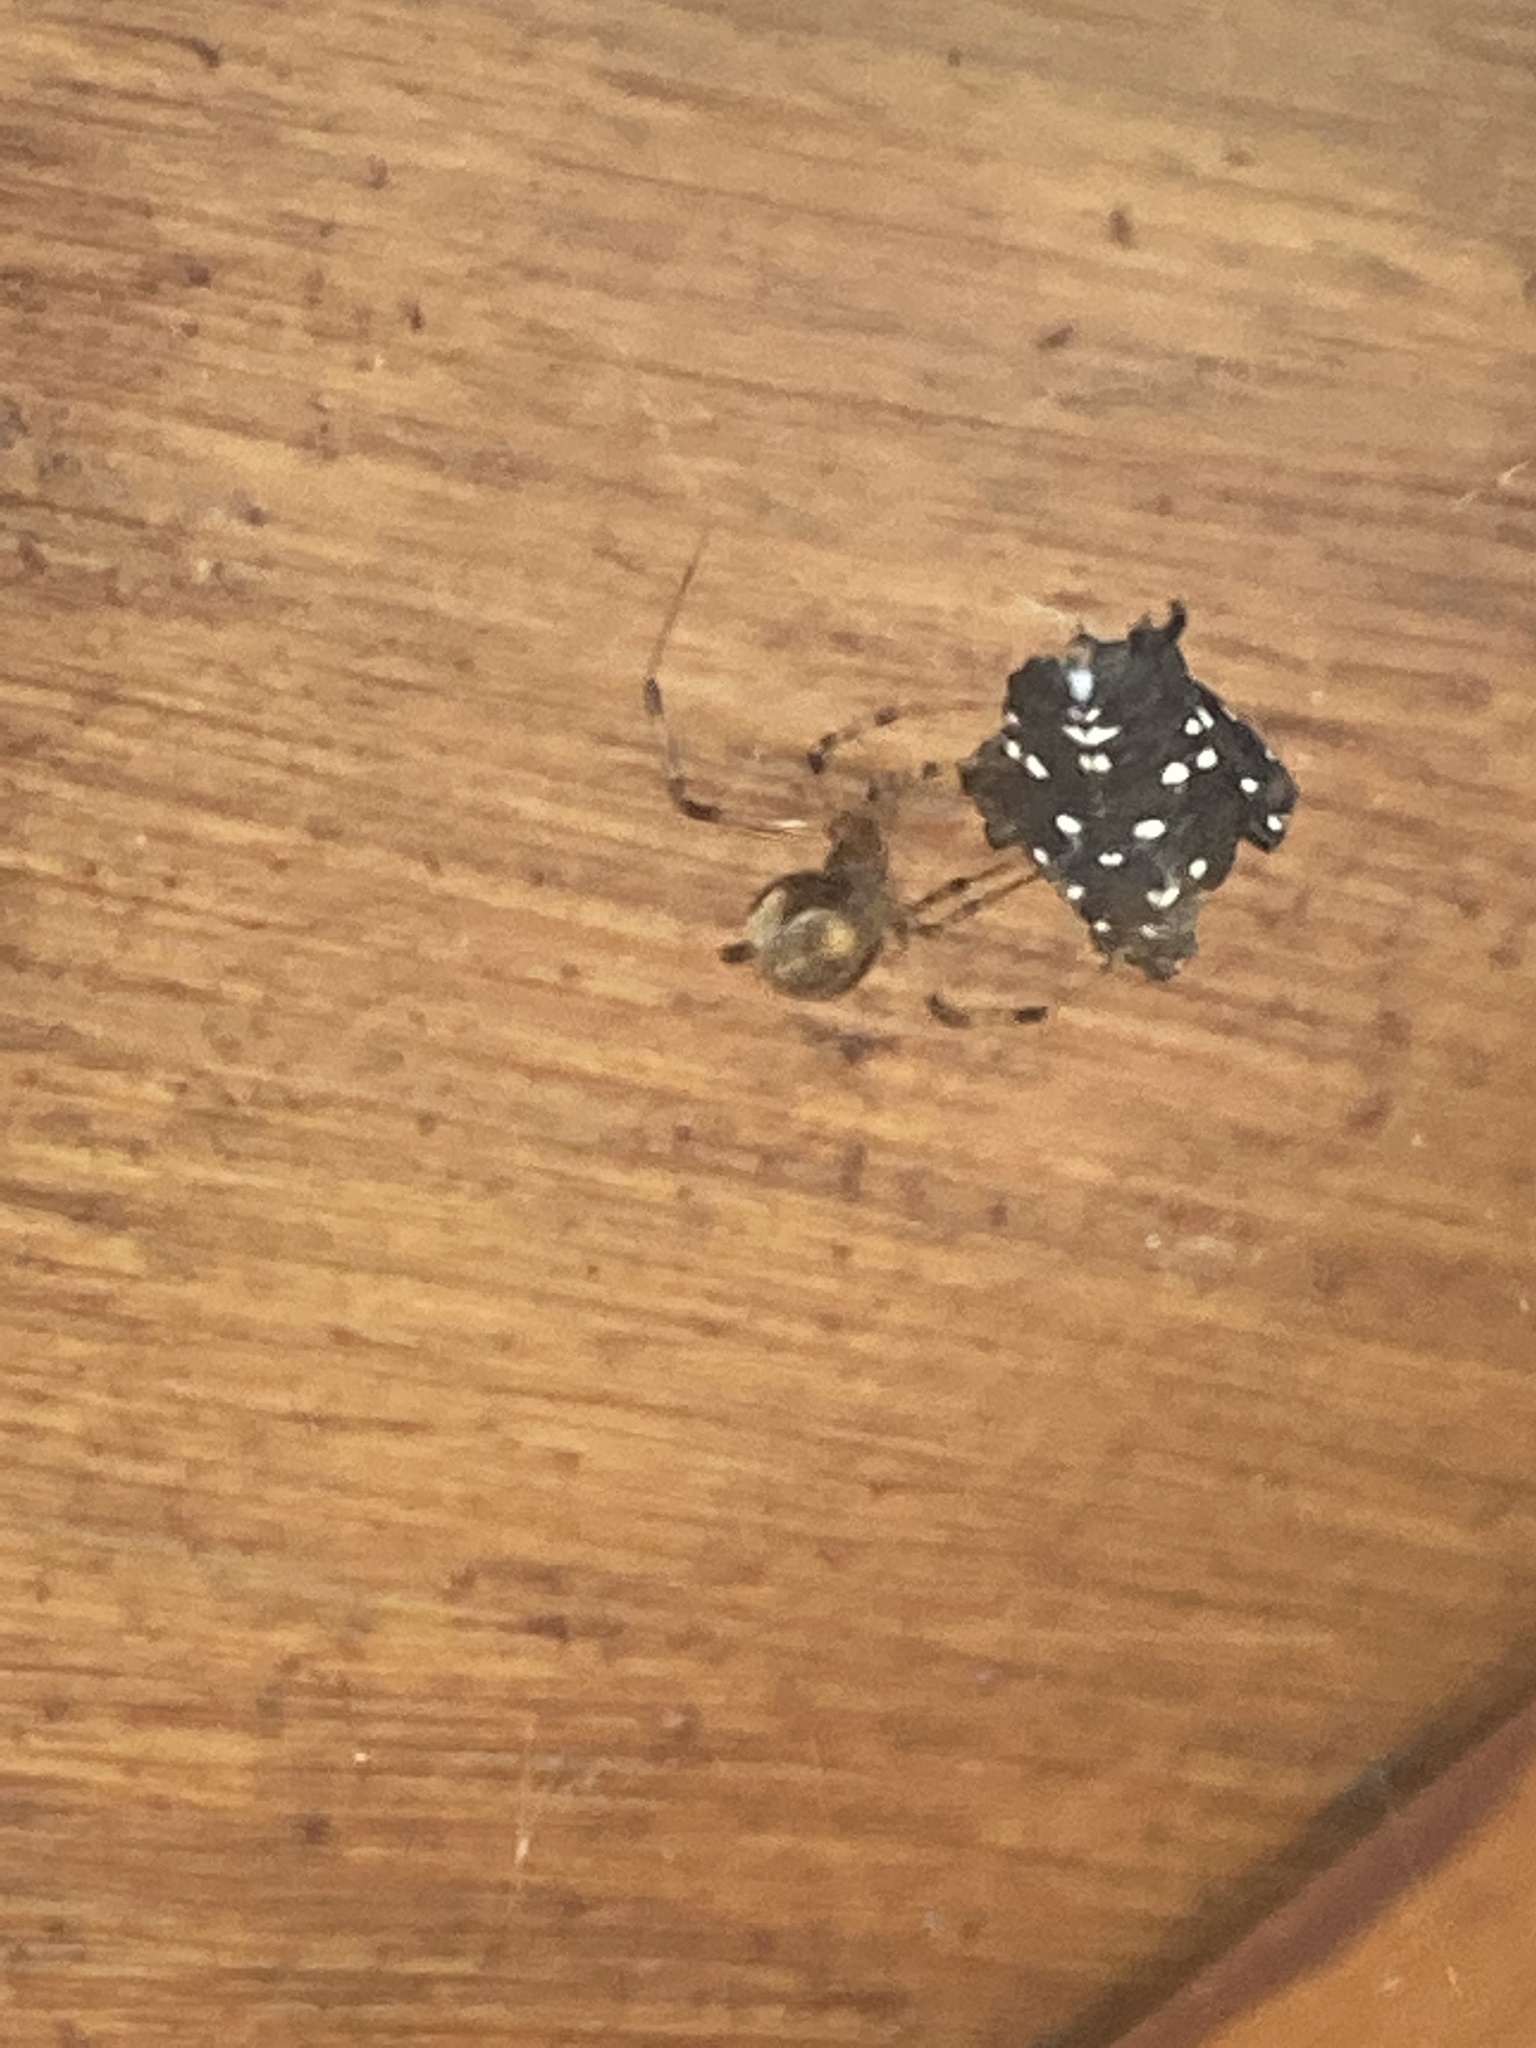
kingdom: Animalia
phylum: Arthropoda
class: Insecta
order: Hemiptera
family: Fulgoridae
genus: Lycorma
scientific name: Lycorma delicatula
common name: Spotted lanternfly
